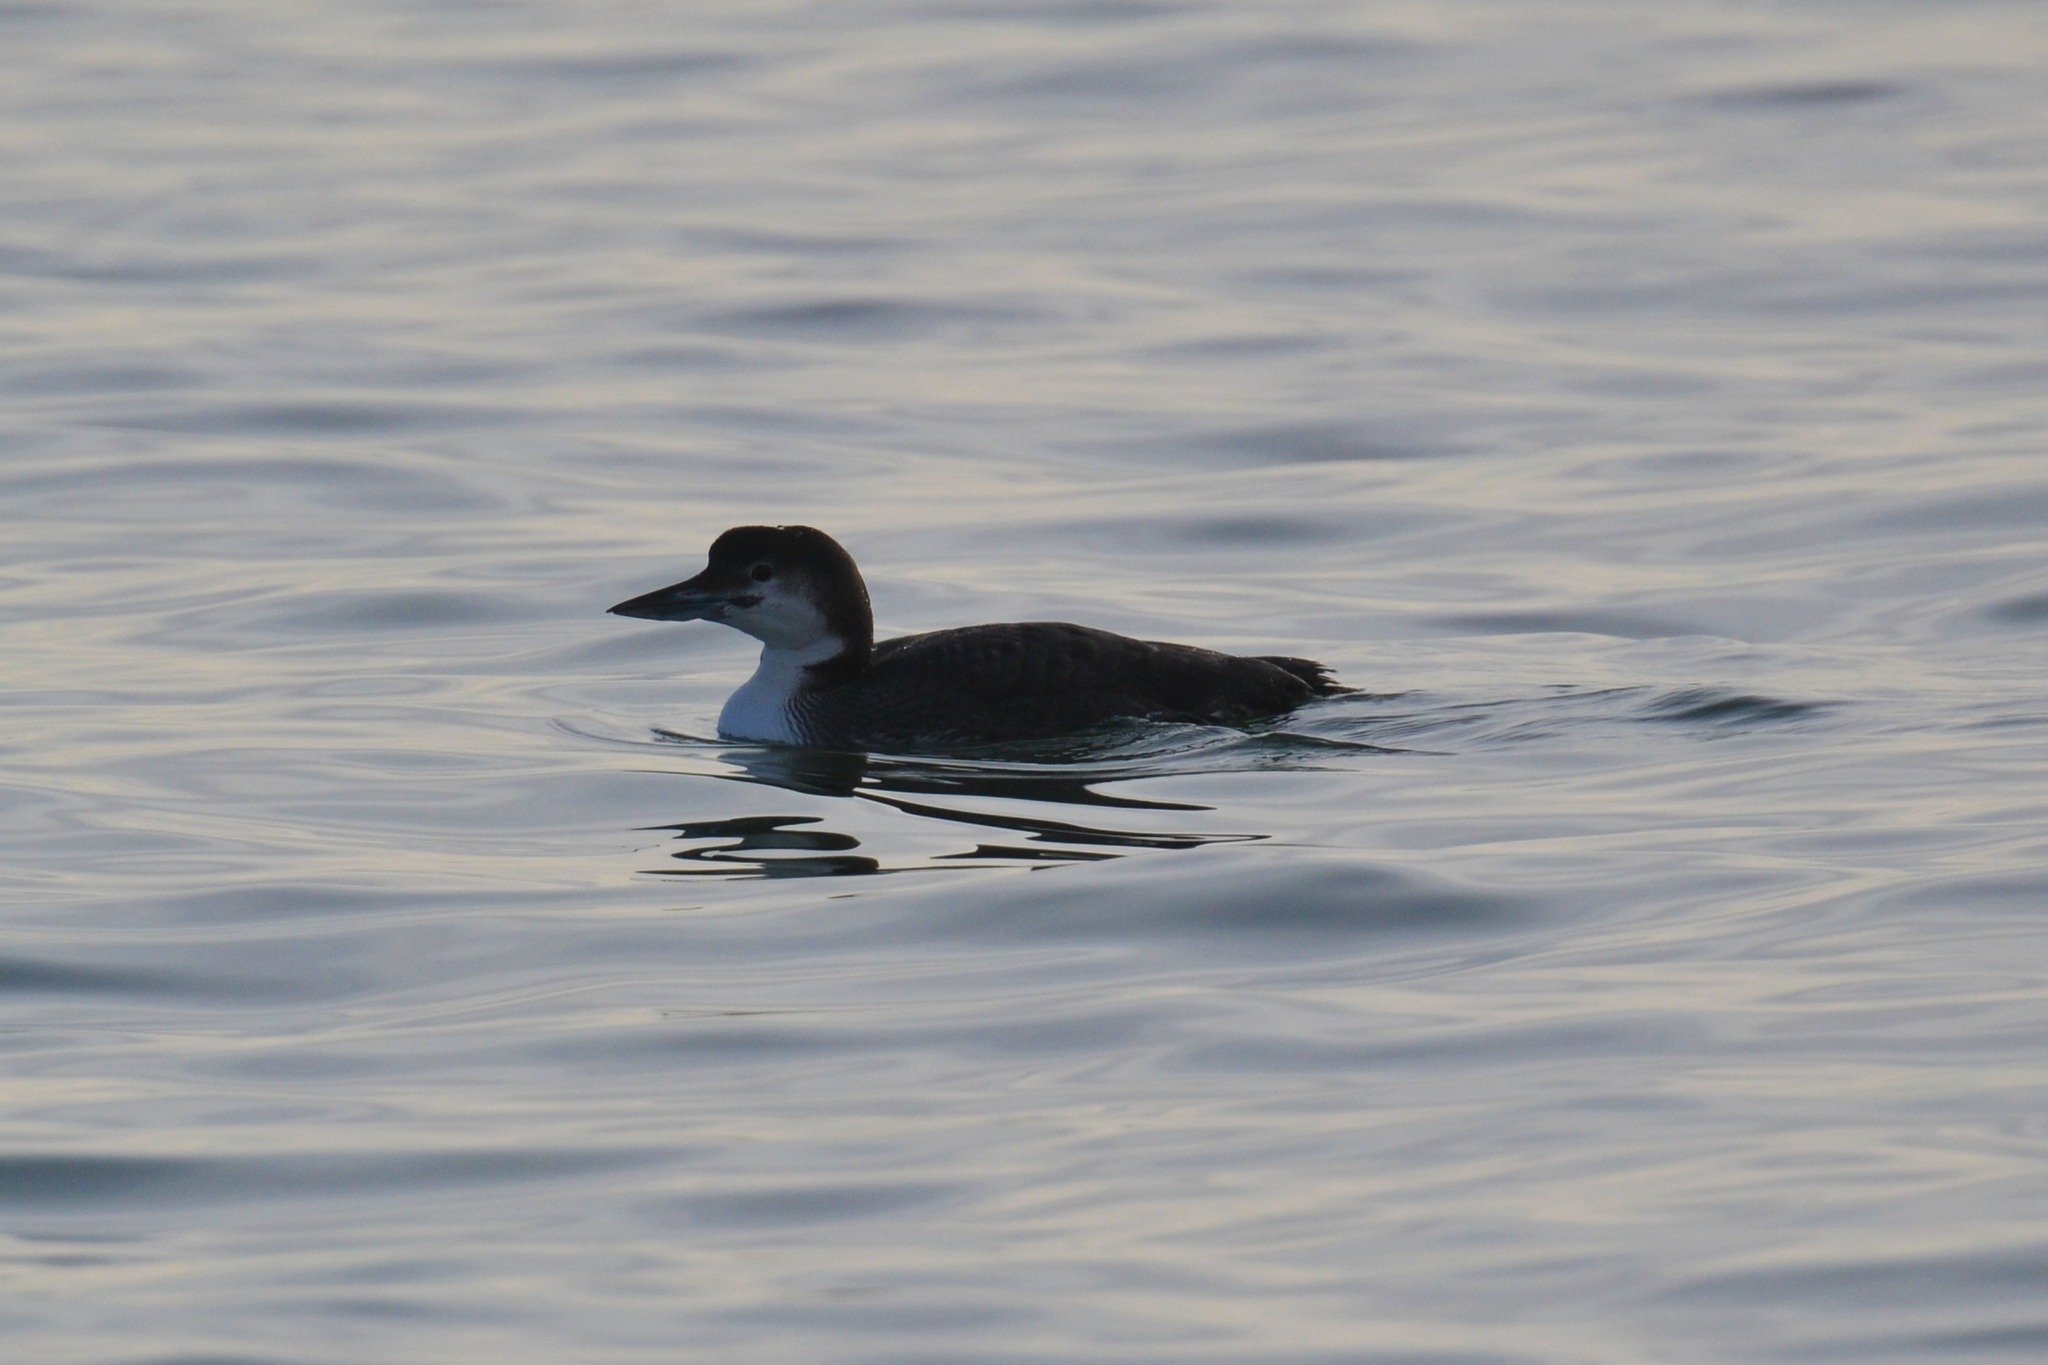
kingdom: Animalia
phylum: Chordata
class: Aves
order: Gaviiformes
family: Gaviidae
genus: Gavia
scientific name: Gavia immer
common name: Common loon
